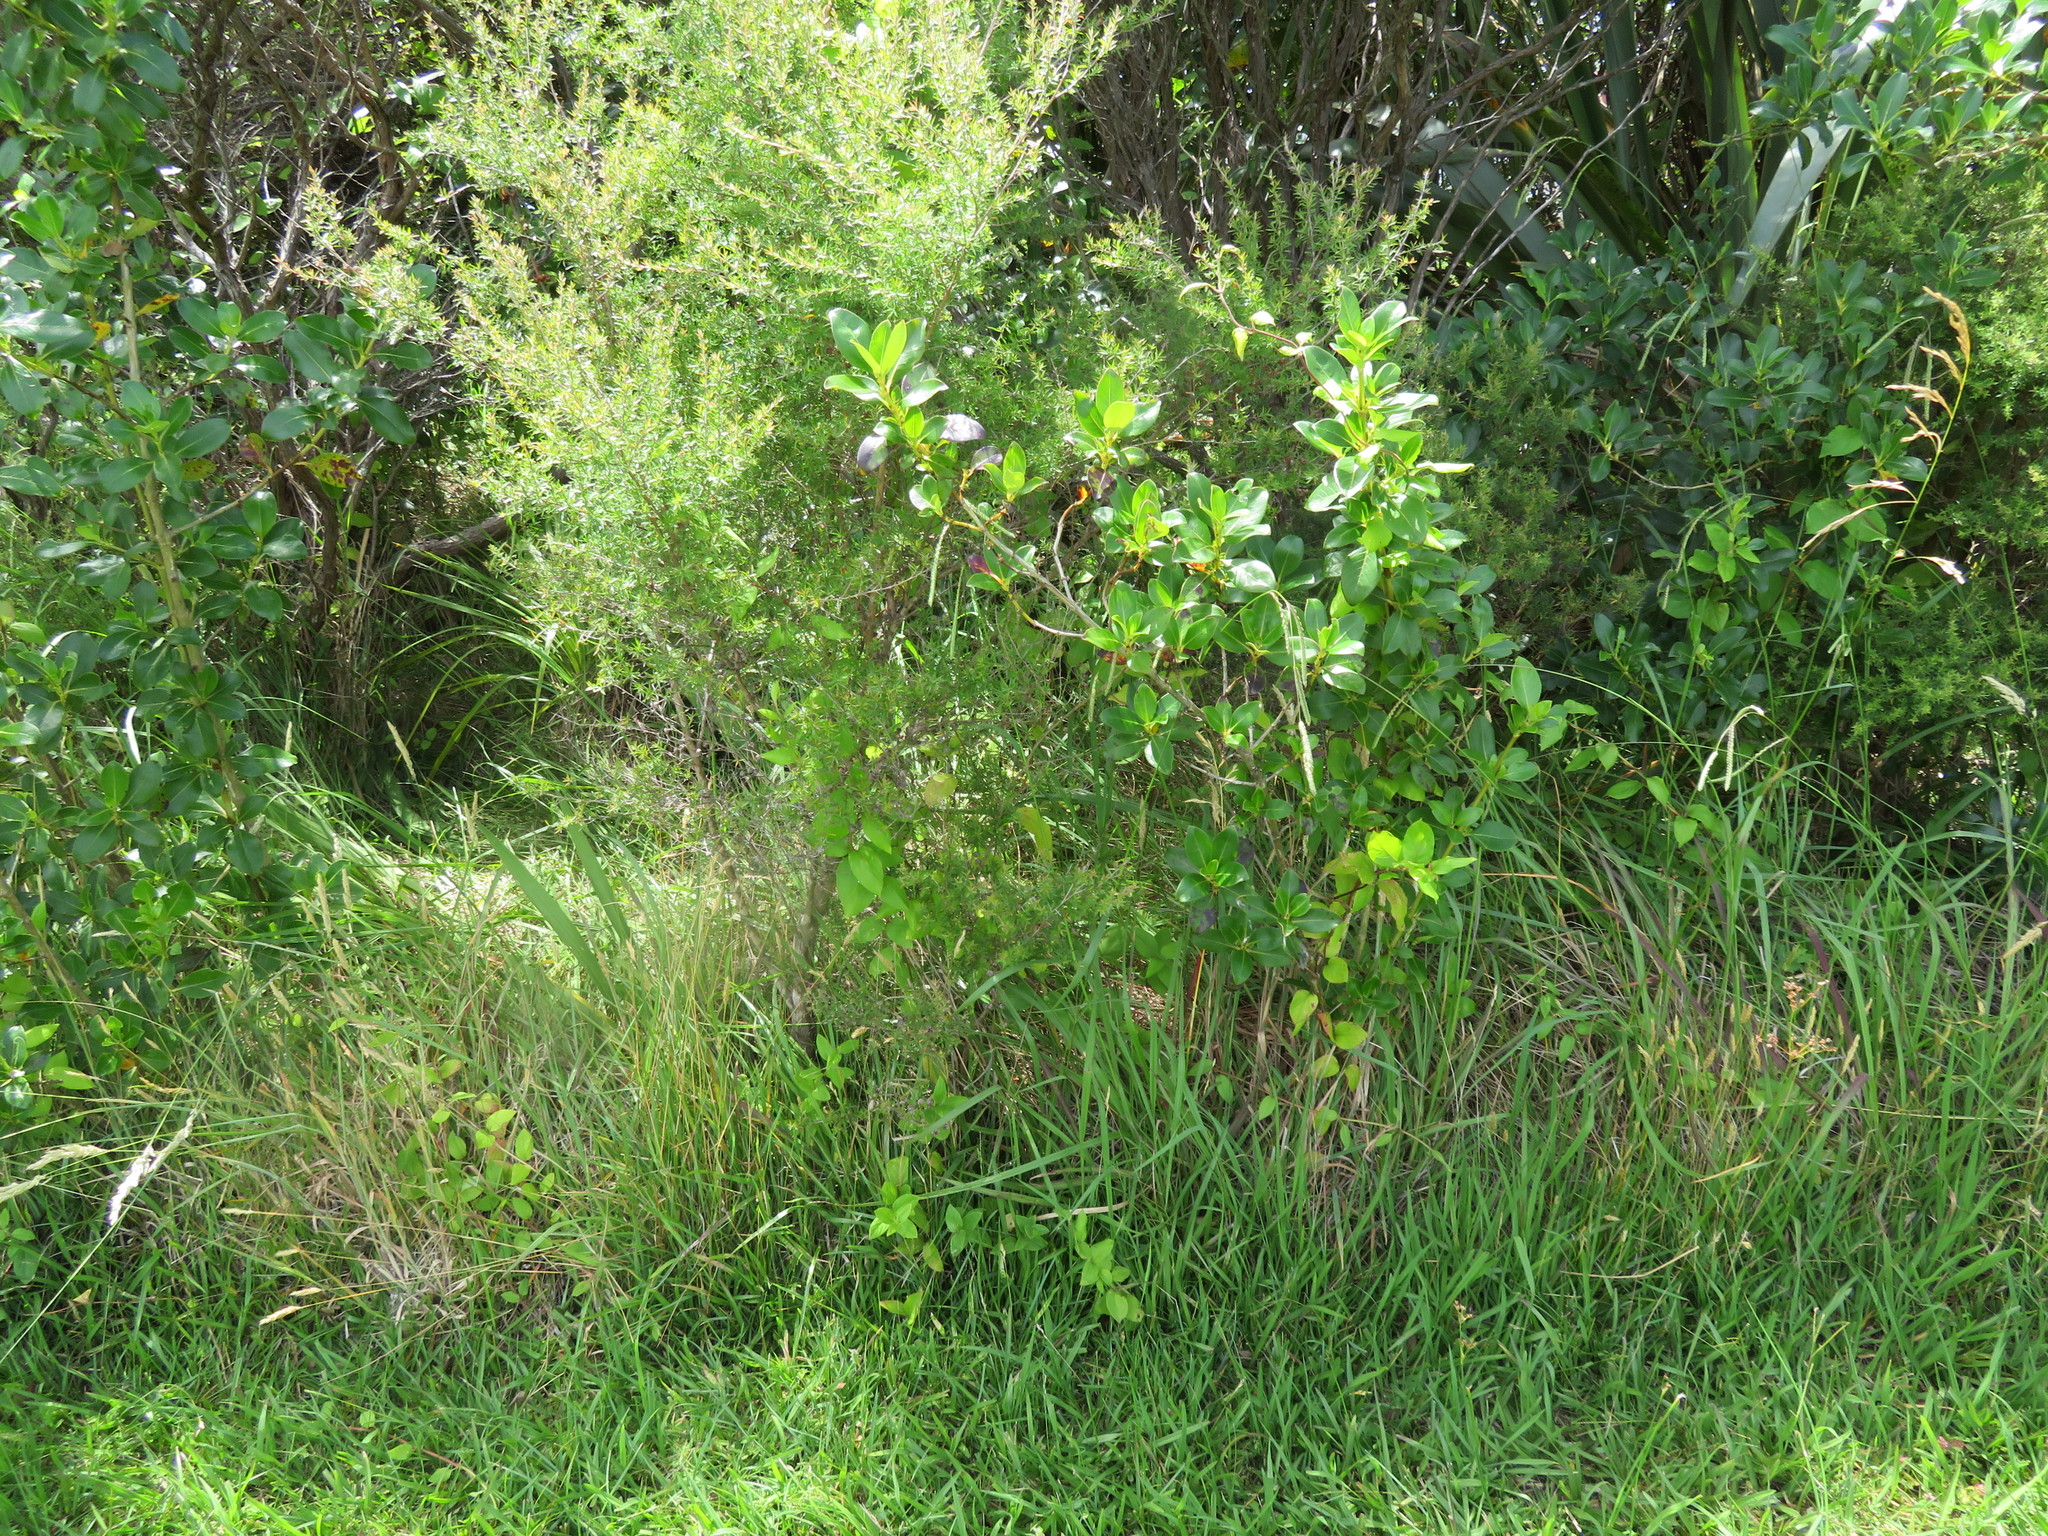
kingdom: Plantae
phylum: Tracheophyta
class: Magnoliopsida
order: Gentianales
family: Rubiaceae
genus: Coprosma
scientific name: Coprosma robusta
